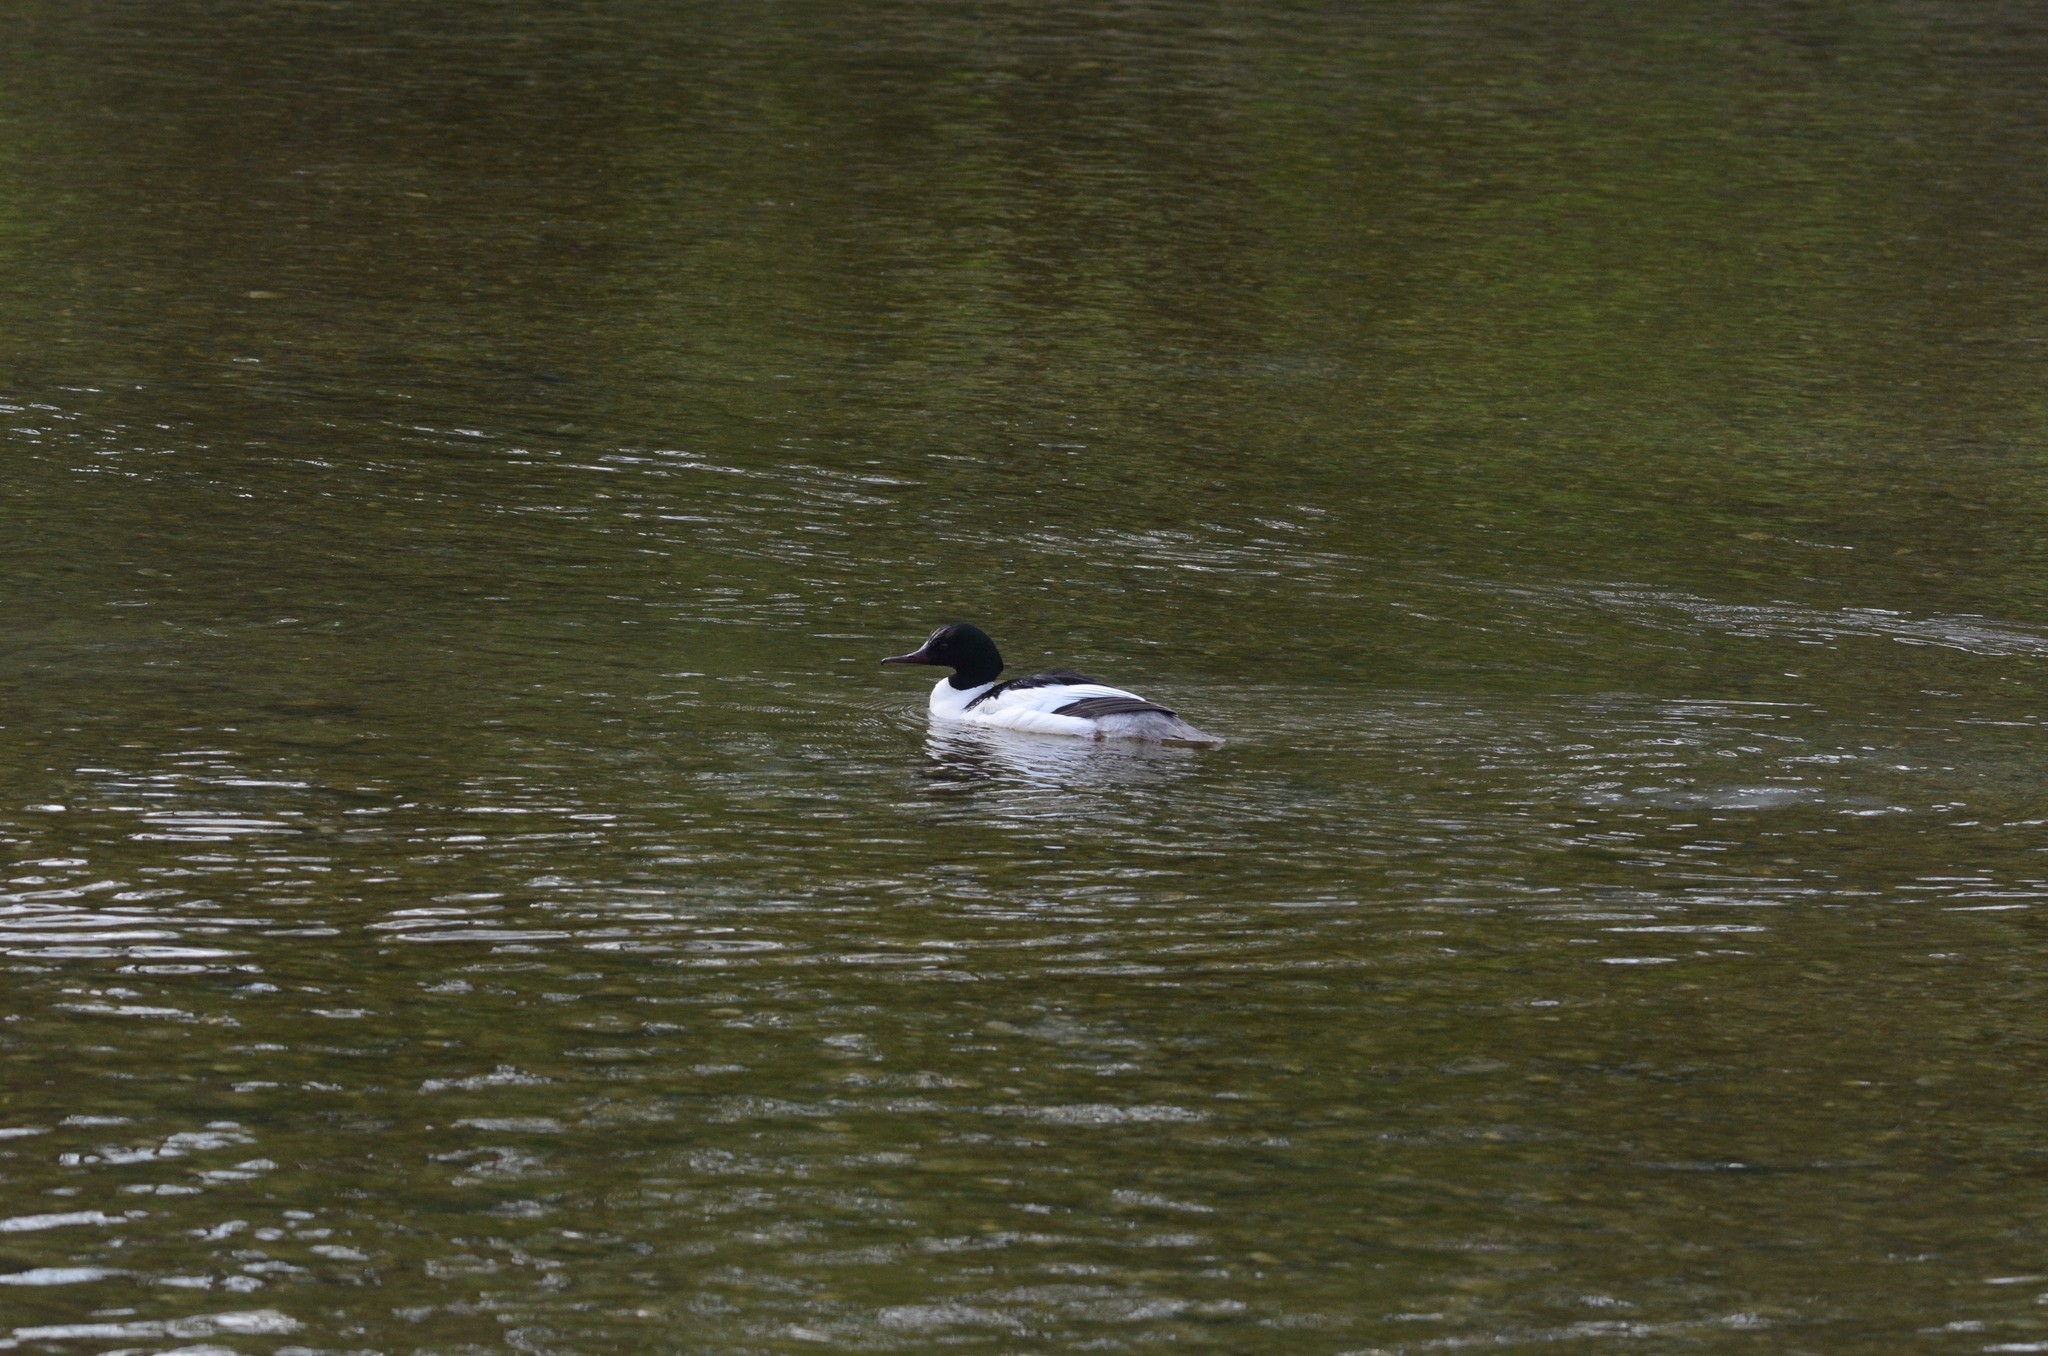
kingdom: Animalia
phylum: Chordata
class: Aves
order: Anseriformes
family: Anatidae
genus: Mergus
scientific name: Mergus merganser
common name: Common merganser
